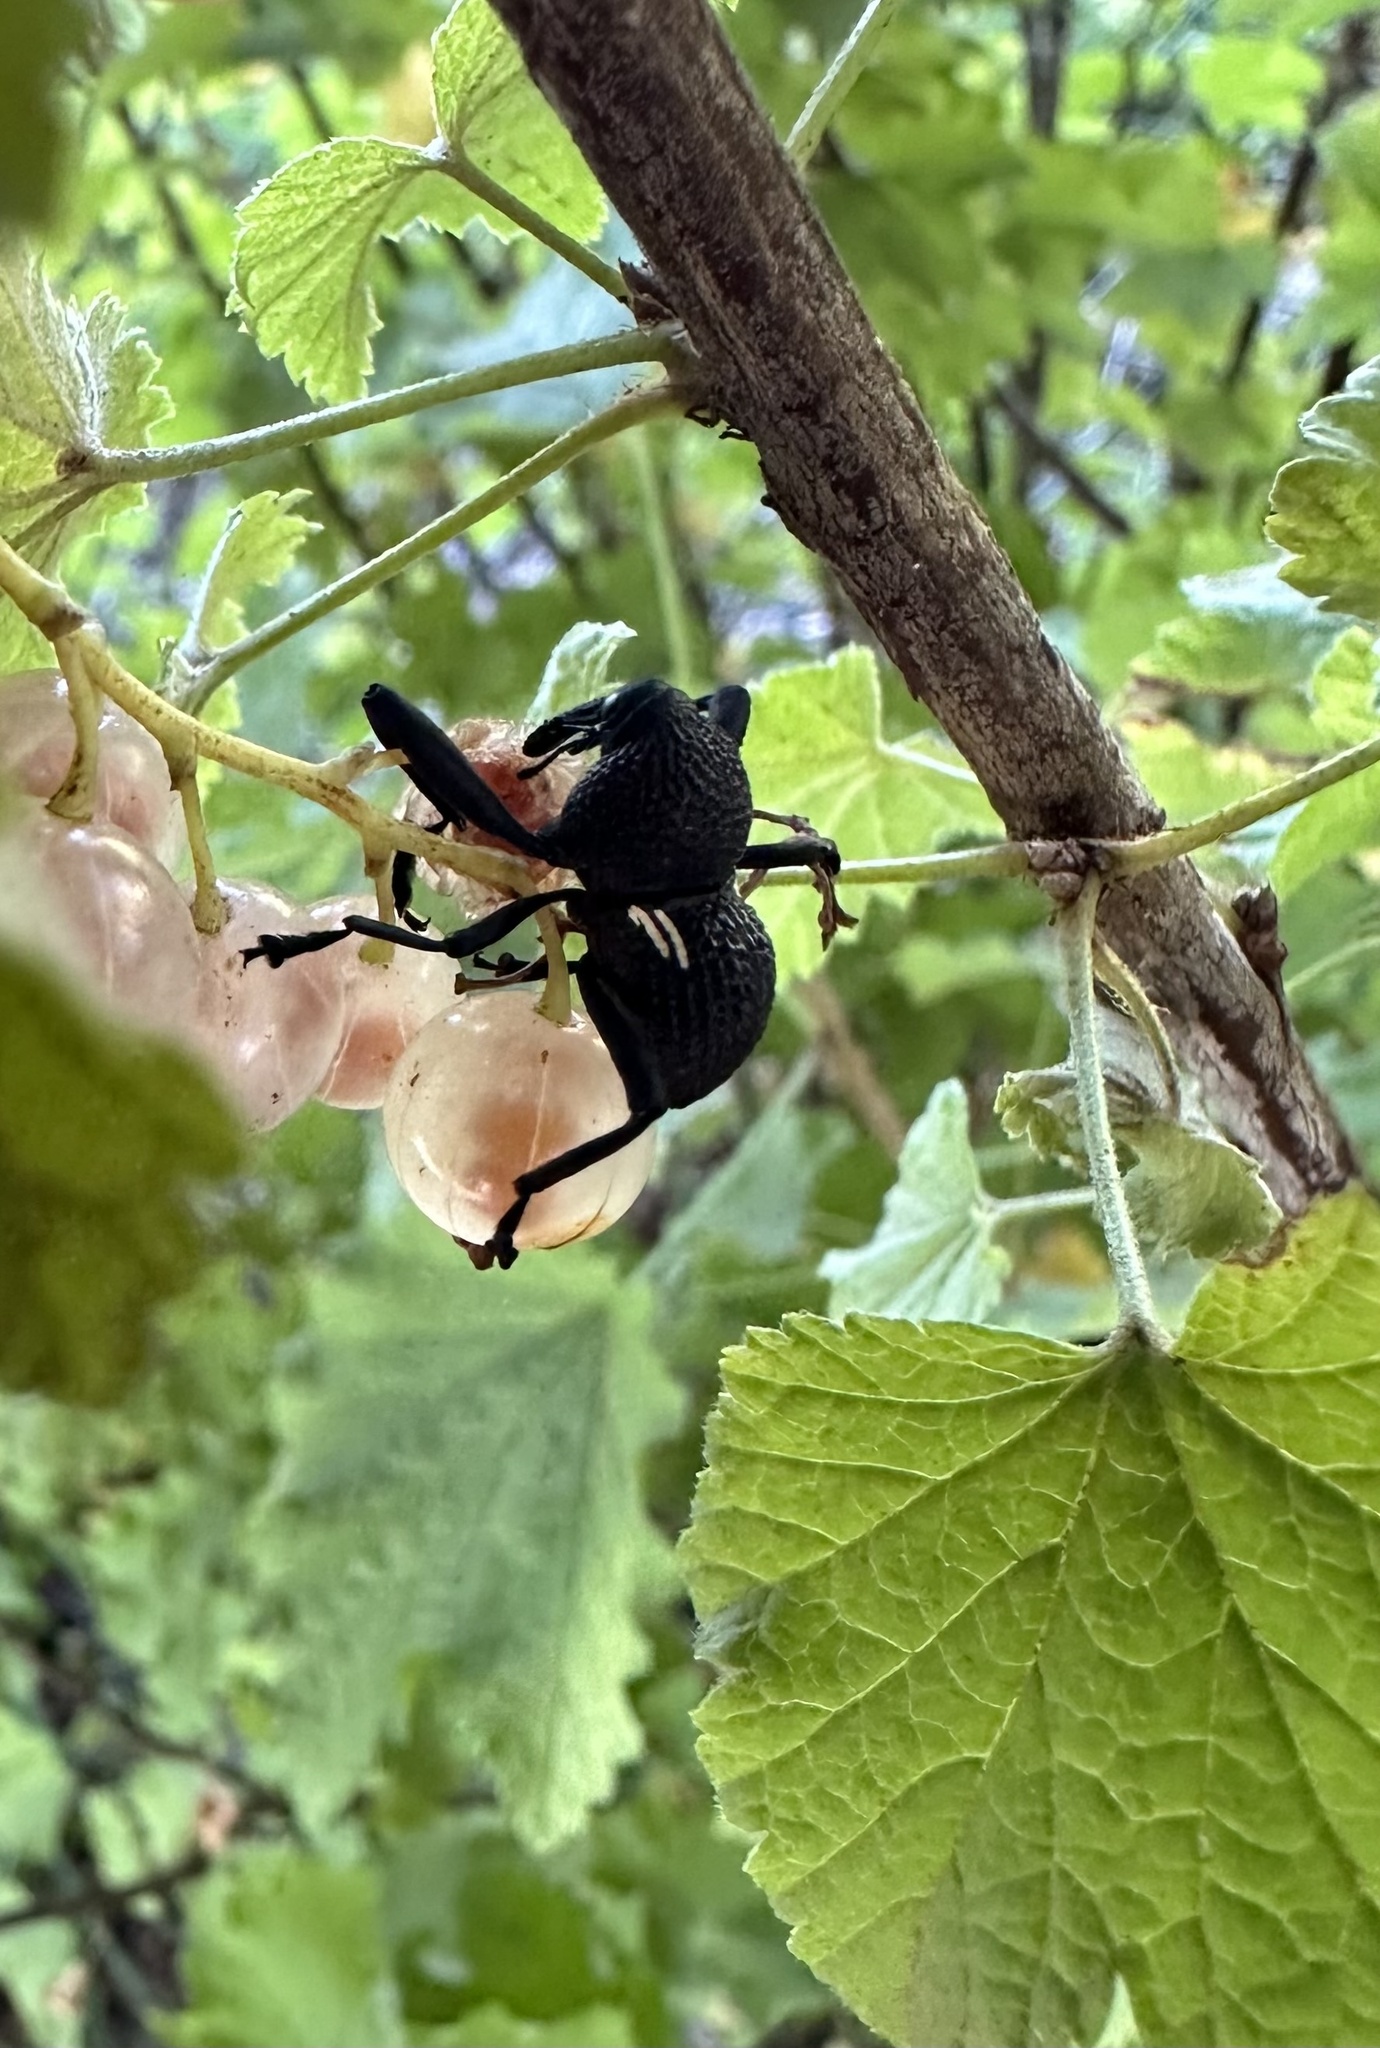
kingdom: Animalia
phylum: Arthropoda
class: Insecta
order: Coleoptera
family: Curculionidae
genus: Rhyephenes
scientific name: Rhyephenes humeralis
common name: Araè±ita chilena del pino
